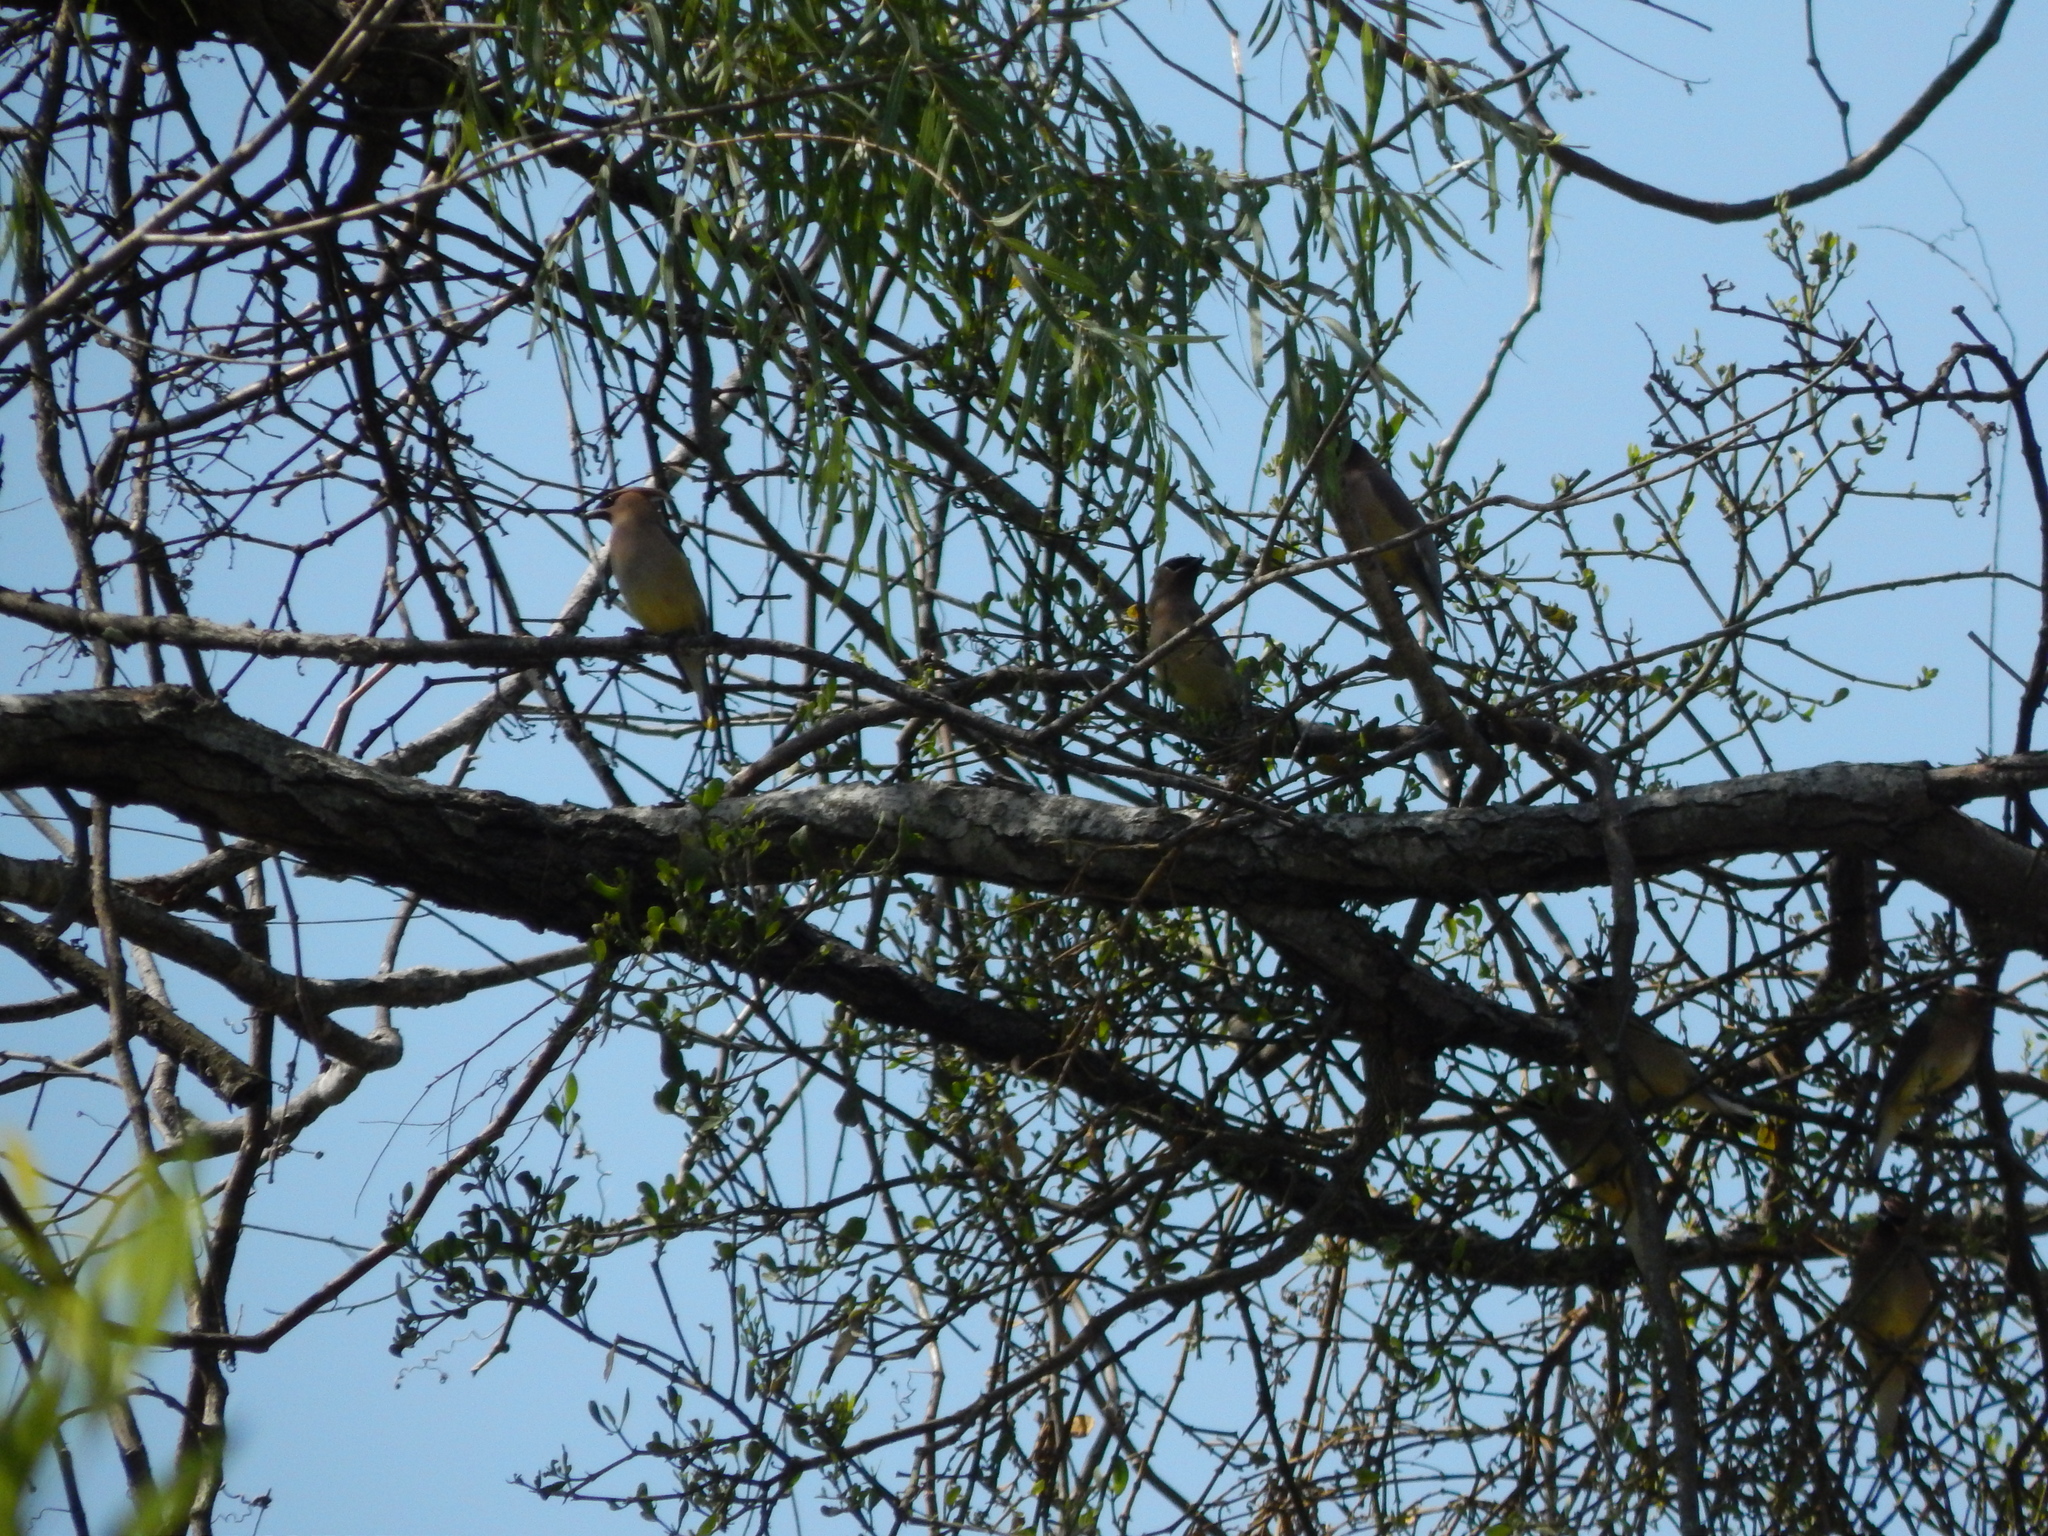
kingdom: Animalia
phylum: Chordata
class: Aves
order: Passeriformes
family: Bombycillidae
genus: Bombycilla
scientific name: Bombycilla cedrorum
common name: Cedar waxwing
